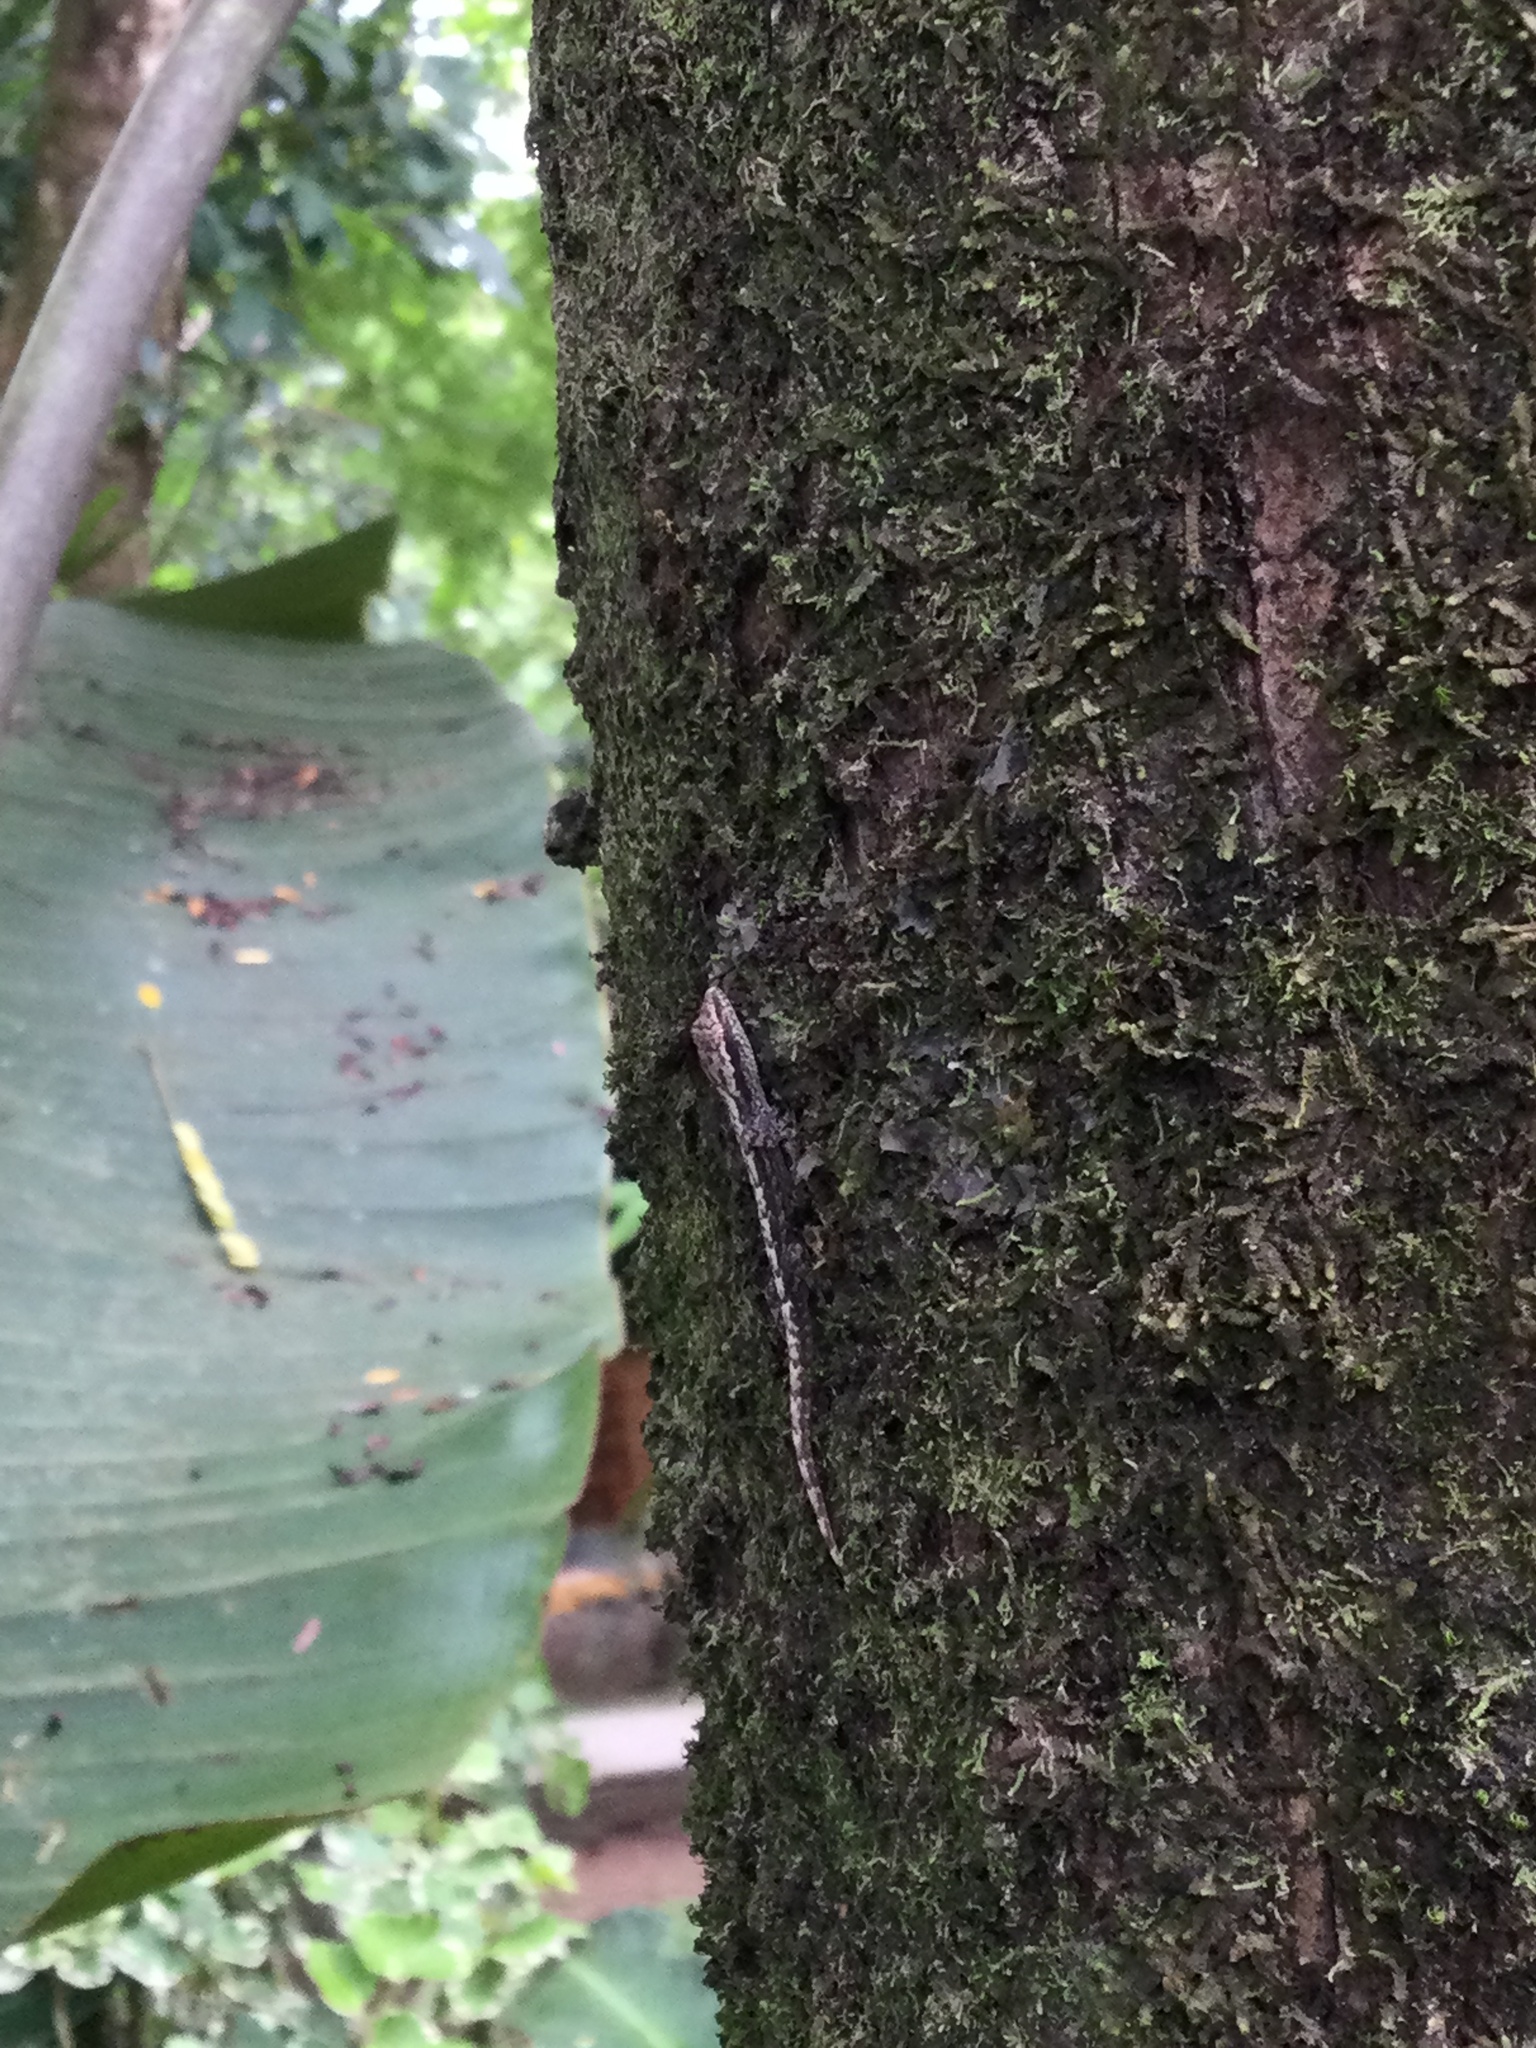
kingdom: Animalia
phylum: Chordata
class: Squamata
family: Gekkonidae
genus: Lepidodactylus
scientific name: Lepidodactylus lugubris
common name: Mourning gecko
